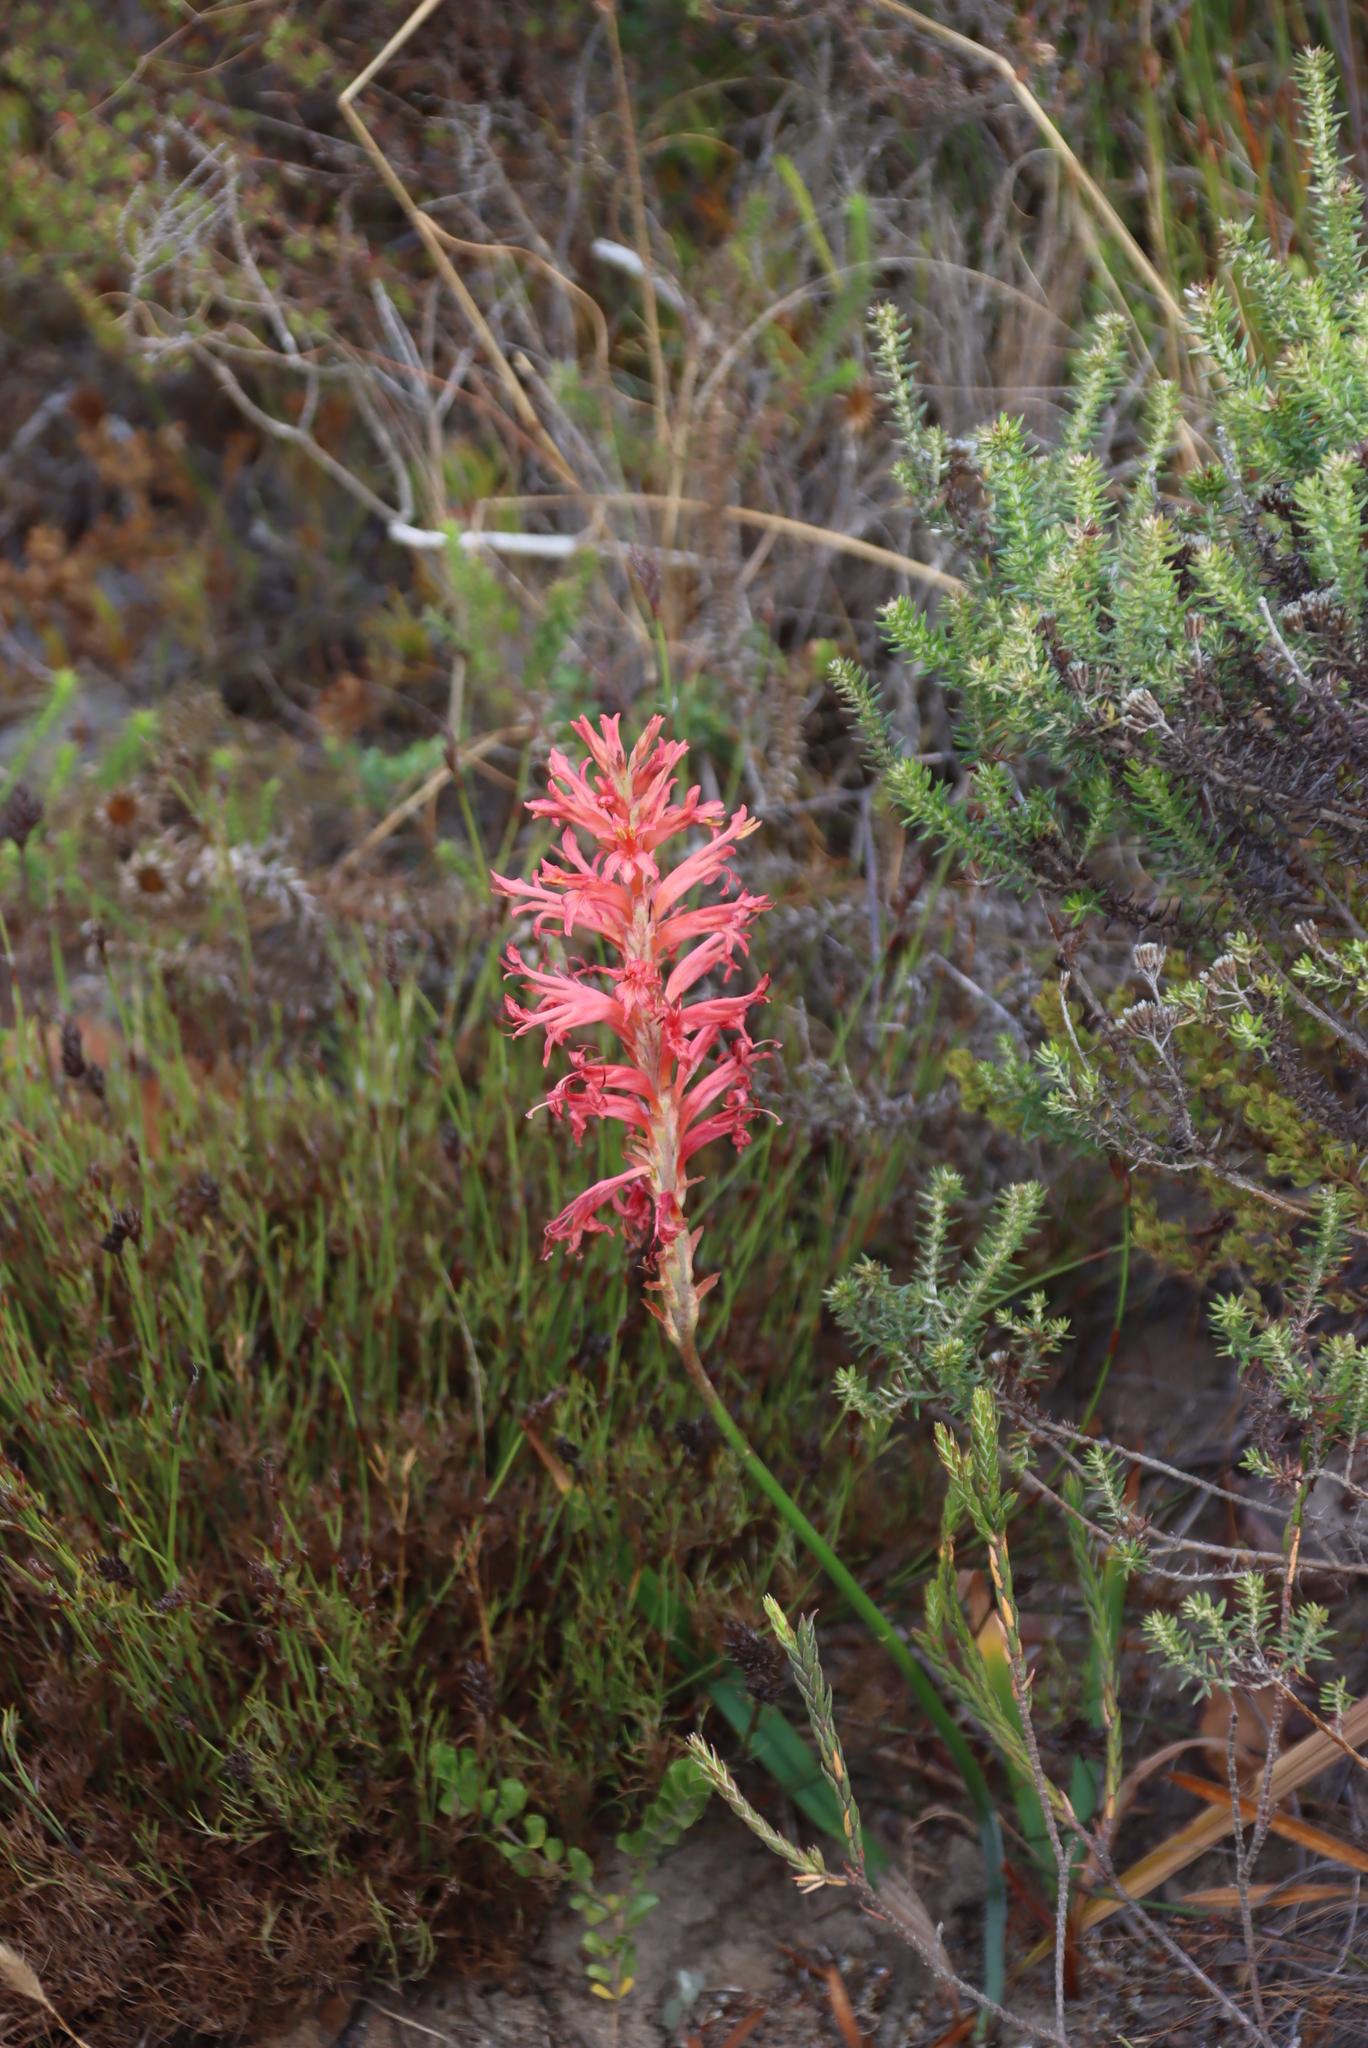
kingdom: Plantae
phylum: Tracheophyta
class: Liliopsida
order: Asparagales
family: Iridaceae
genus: Tritoniopsis
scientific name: Tritoniopsis antholyza
